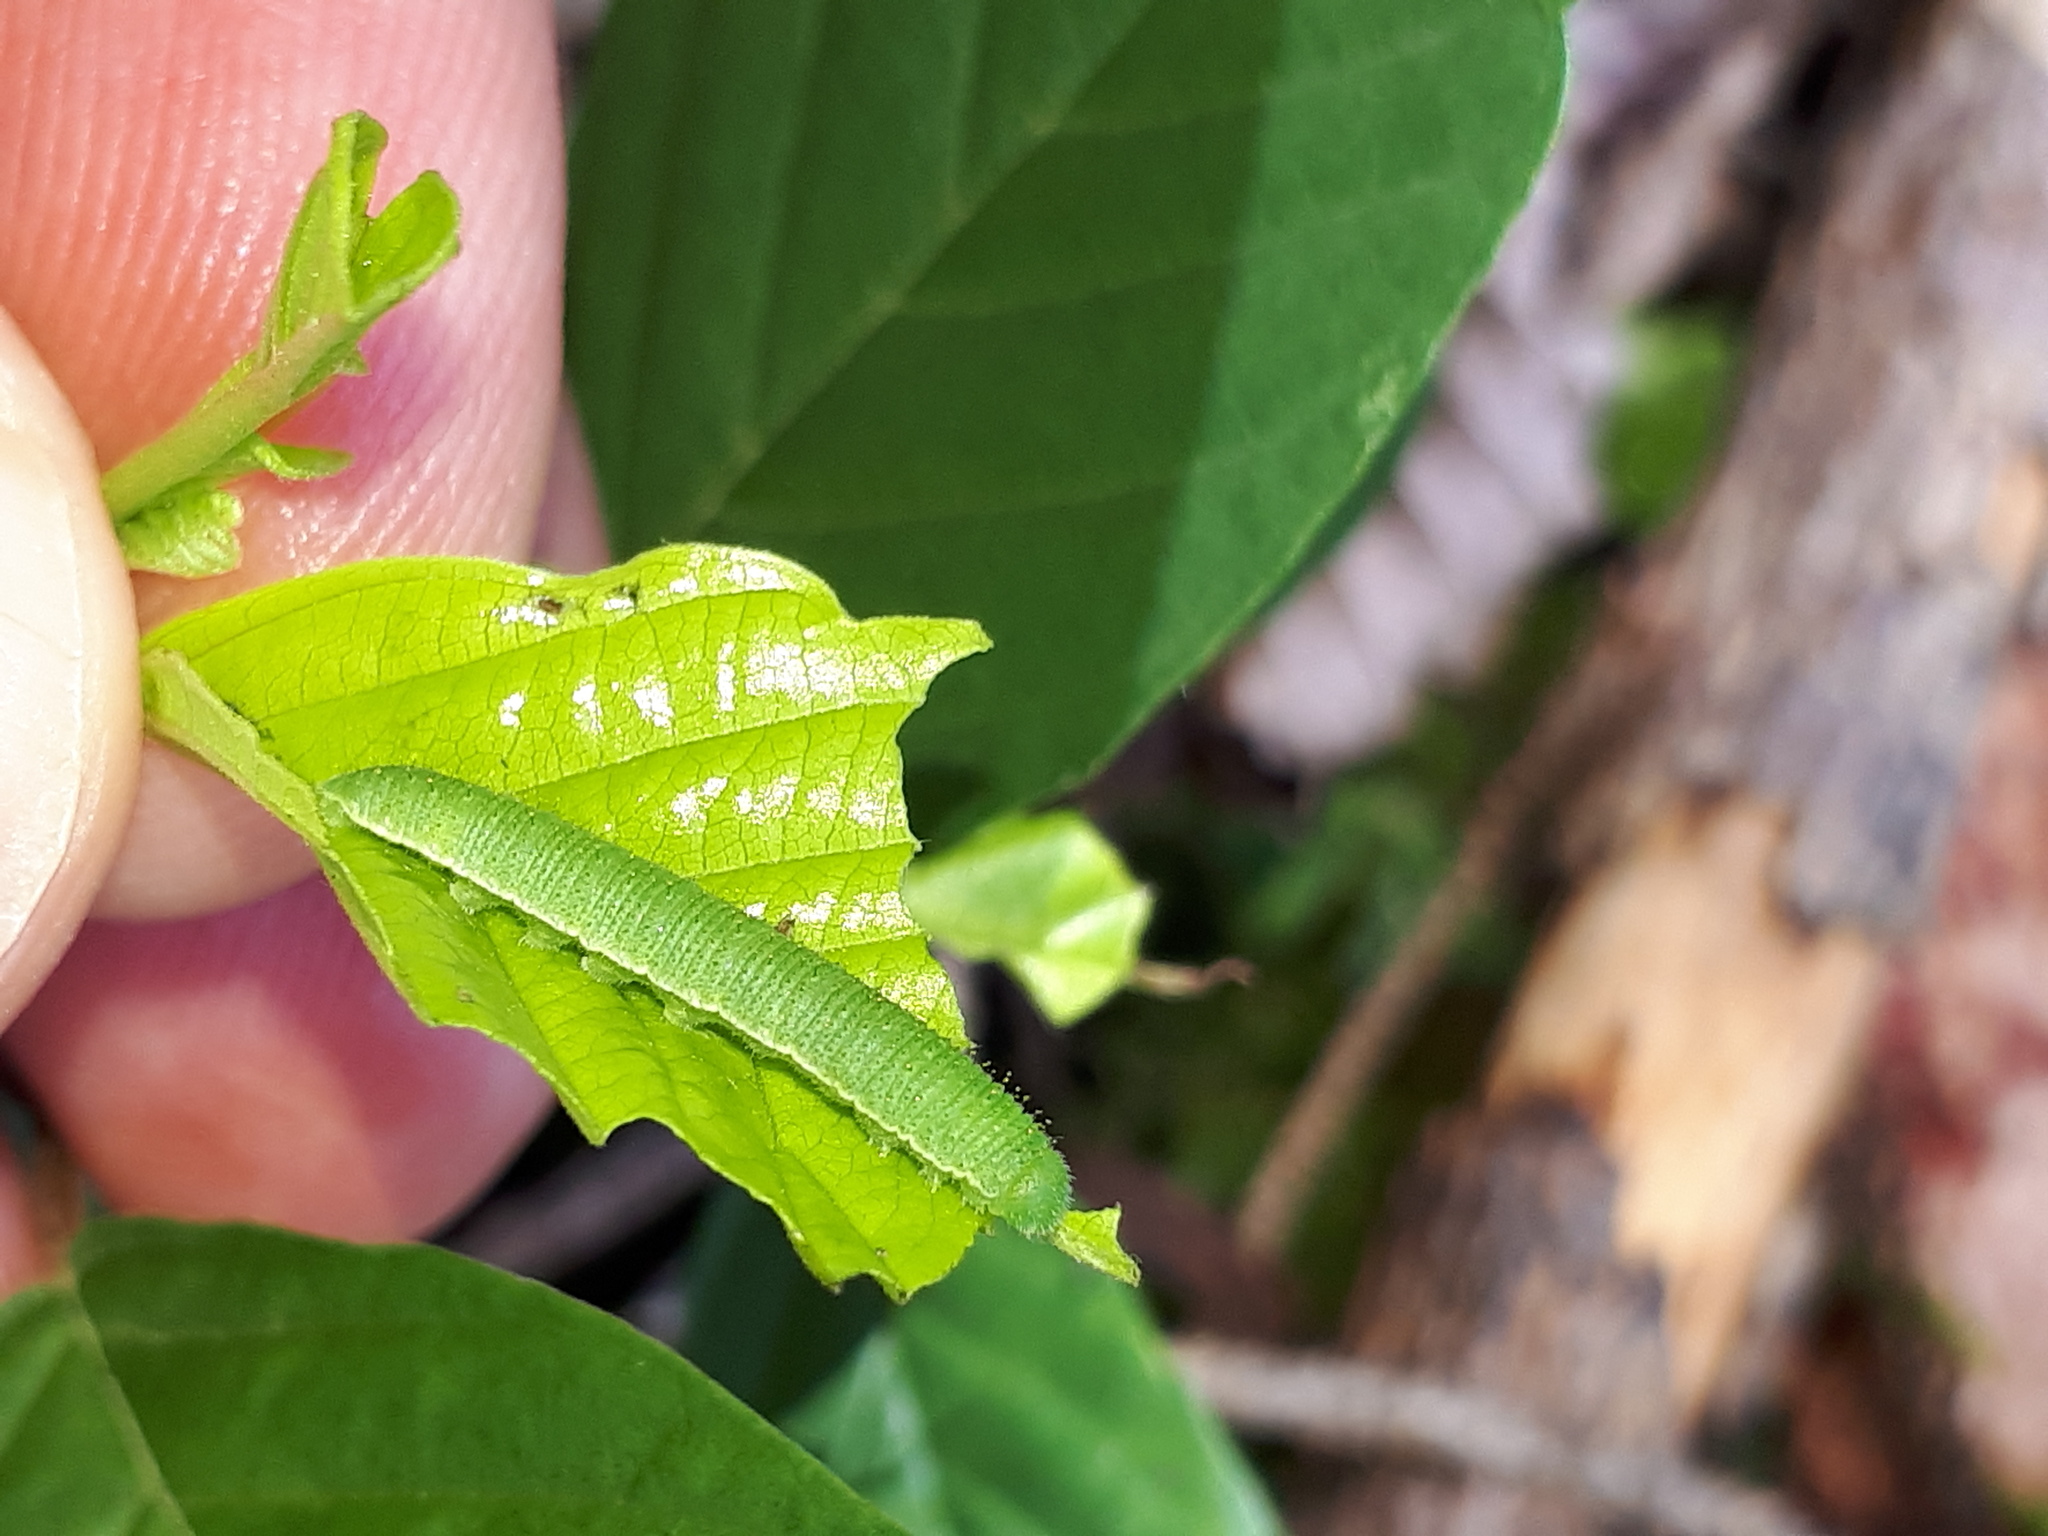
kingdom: Animalia
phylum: Arthropoda
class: Insecta
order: Lepidoptera
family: Pieridae
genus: Gonepteryx
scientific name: Gonepteryx rhamni
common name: Brimstone
